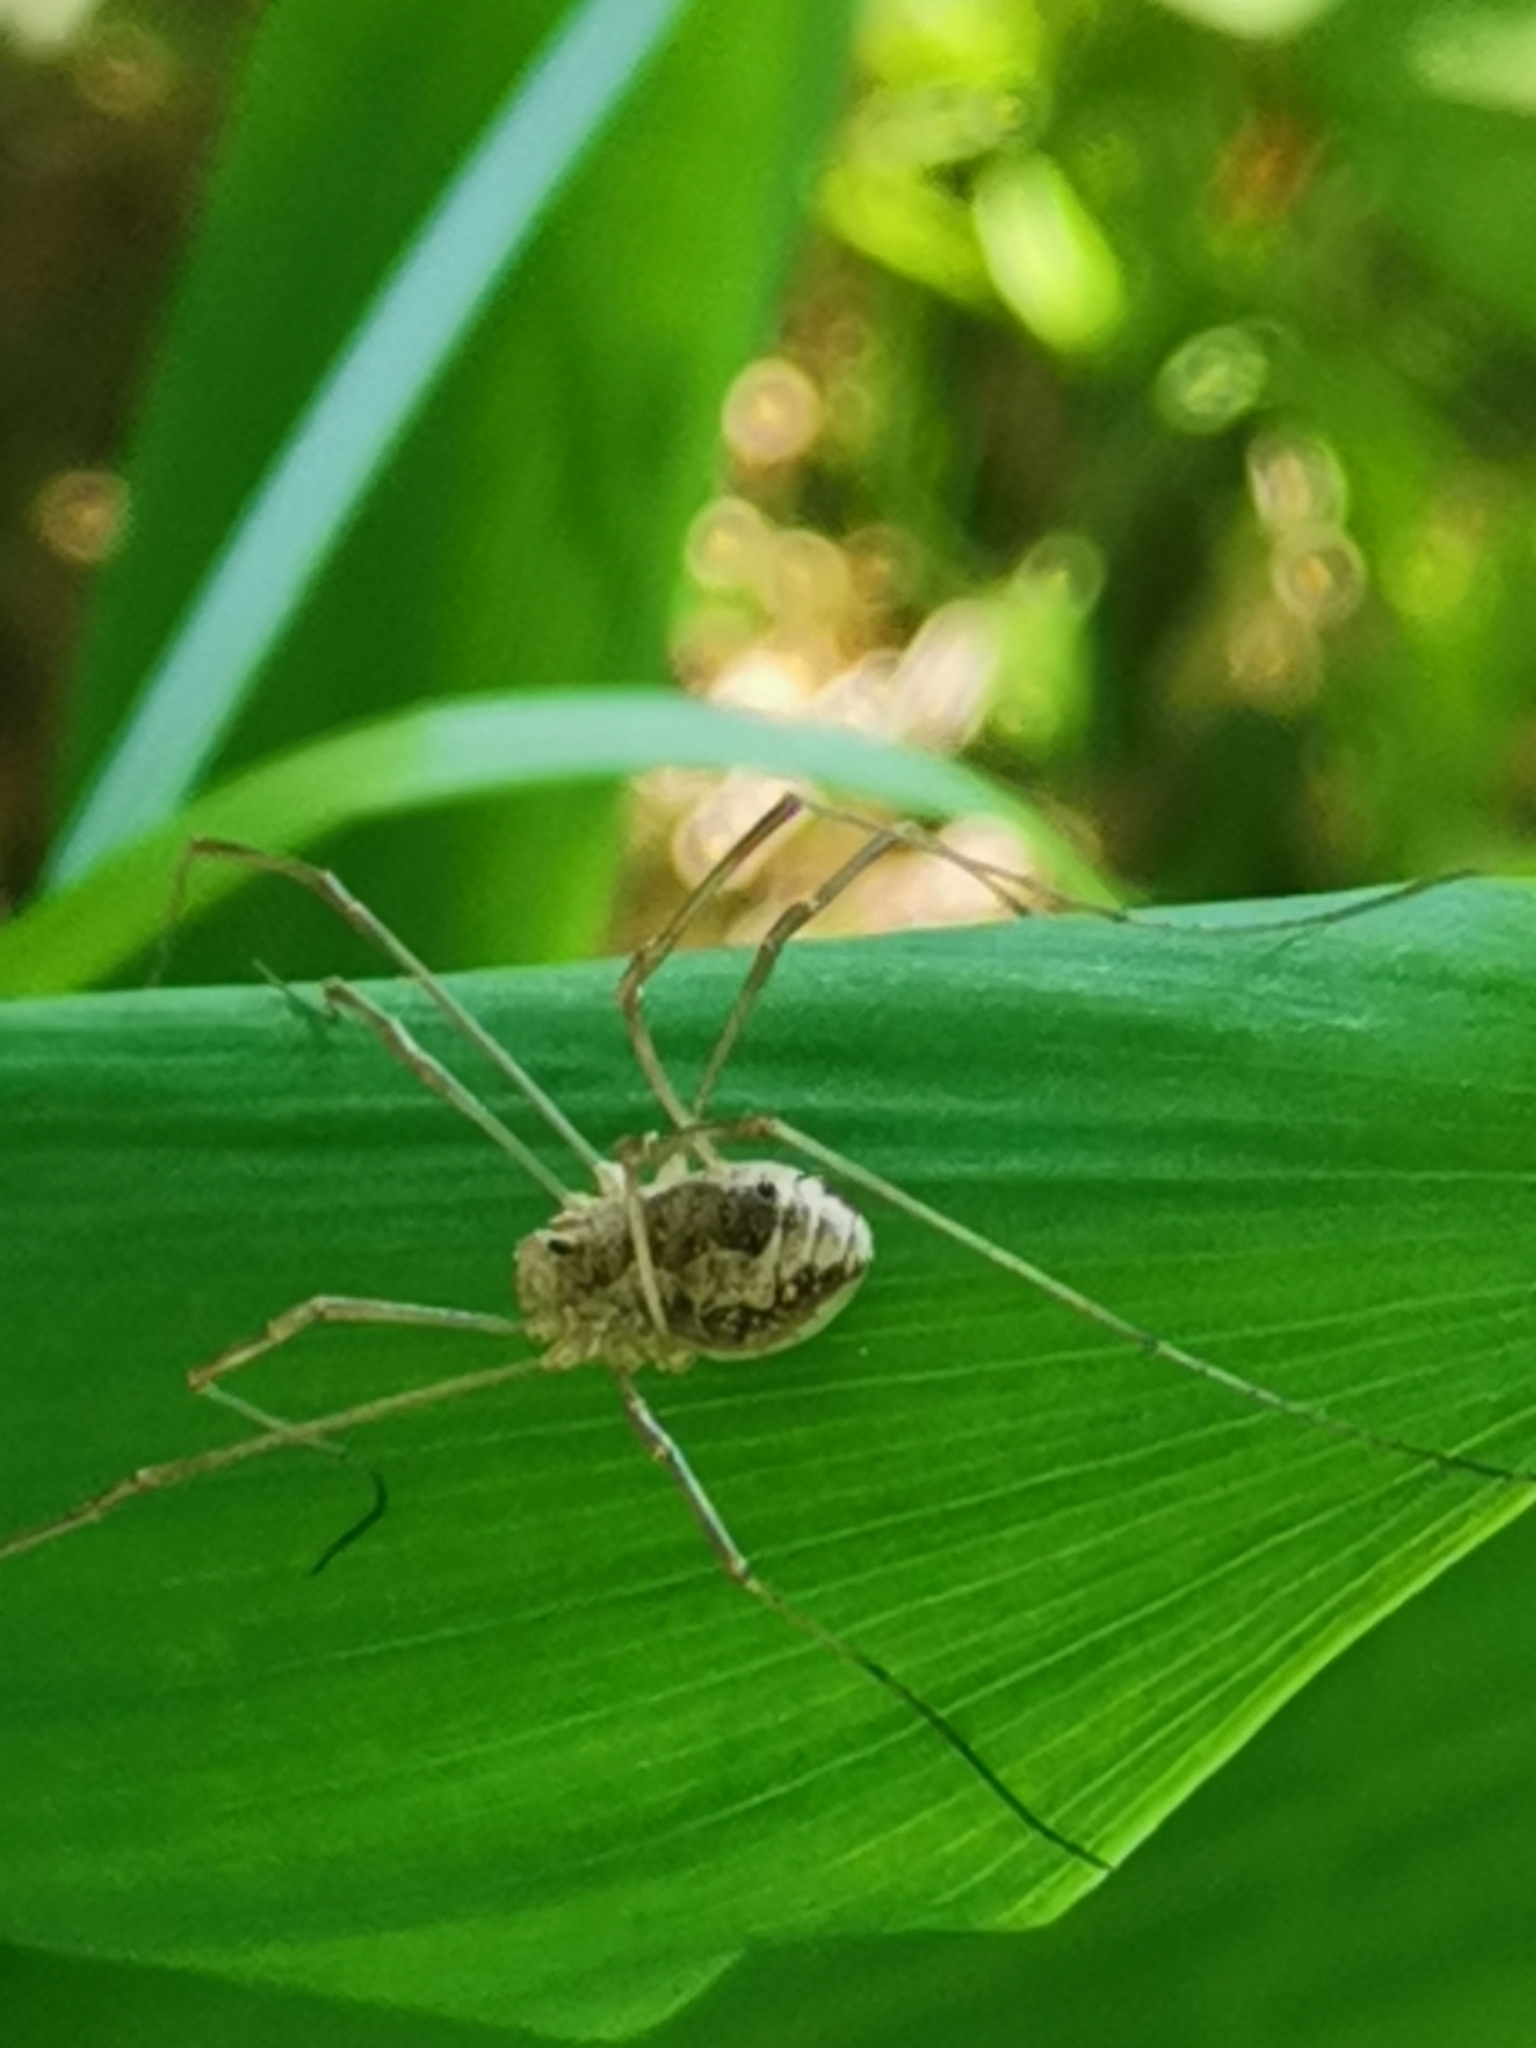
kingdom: Animalia
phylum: Arthropoda
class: Arachnida
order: Opiliones
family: Phalangiidae
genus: Rilaena
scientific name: Rilaena triangularis
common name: Spring harvestman
